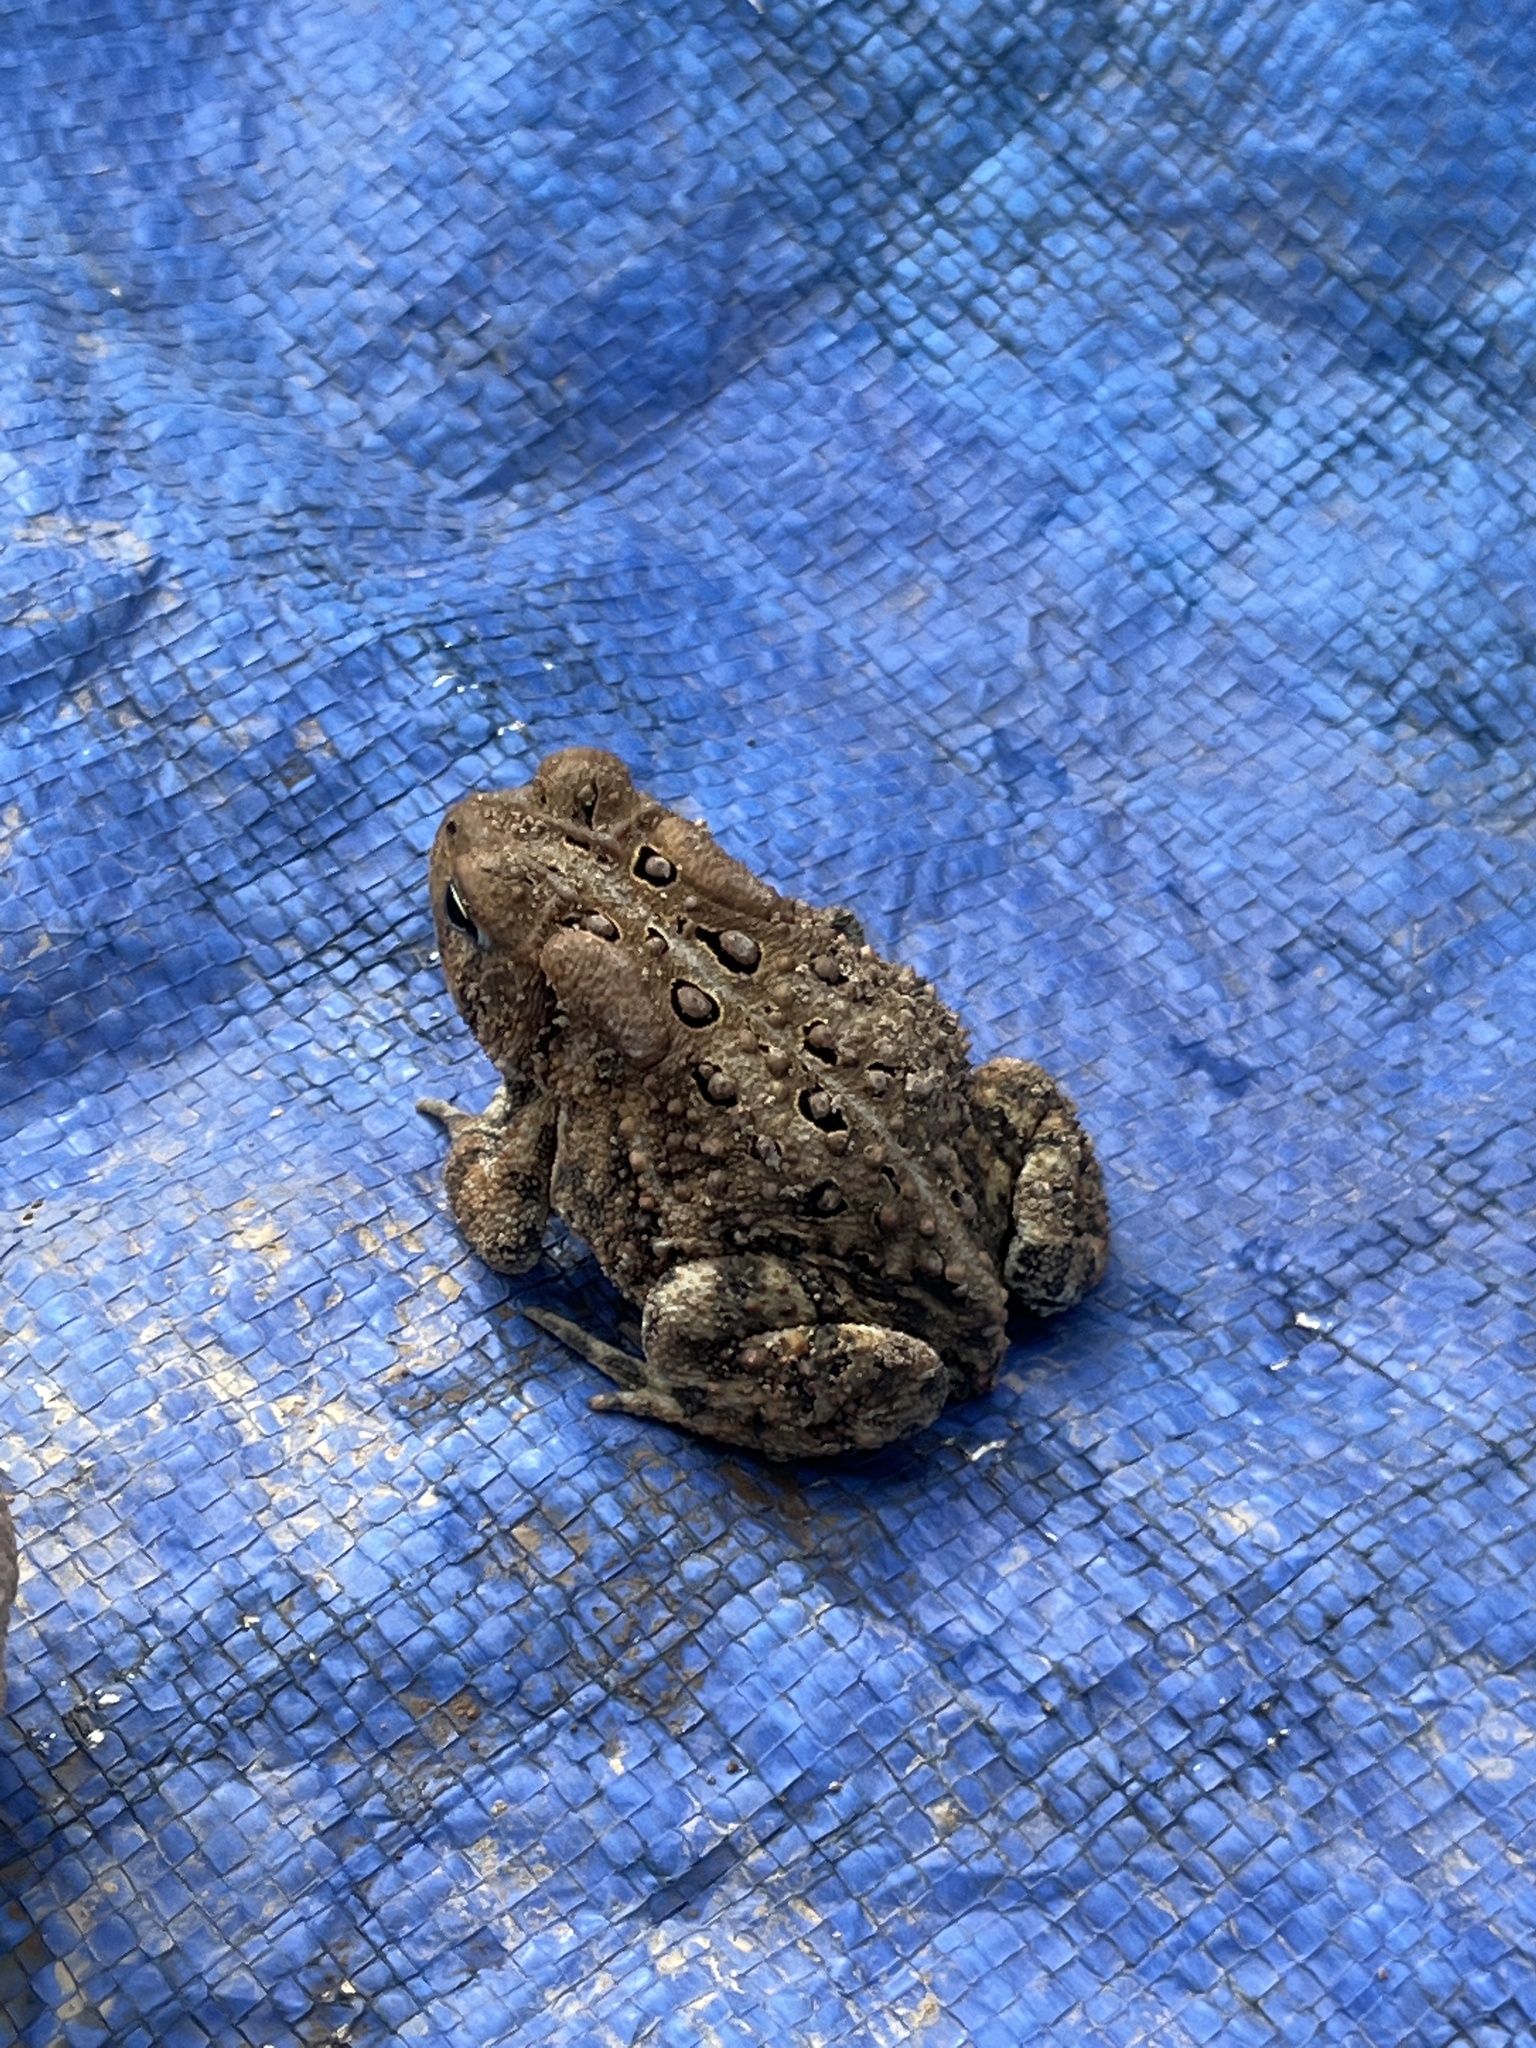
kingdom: Animalia
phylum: Chordata
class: Amphibia
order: Anura
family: Bufonidae
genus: Anaxyrus
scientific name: Anaxyrus americanus
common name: American toad
